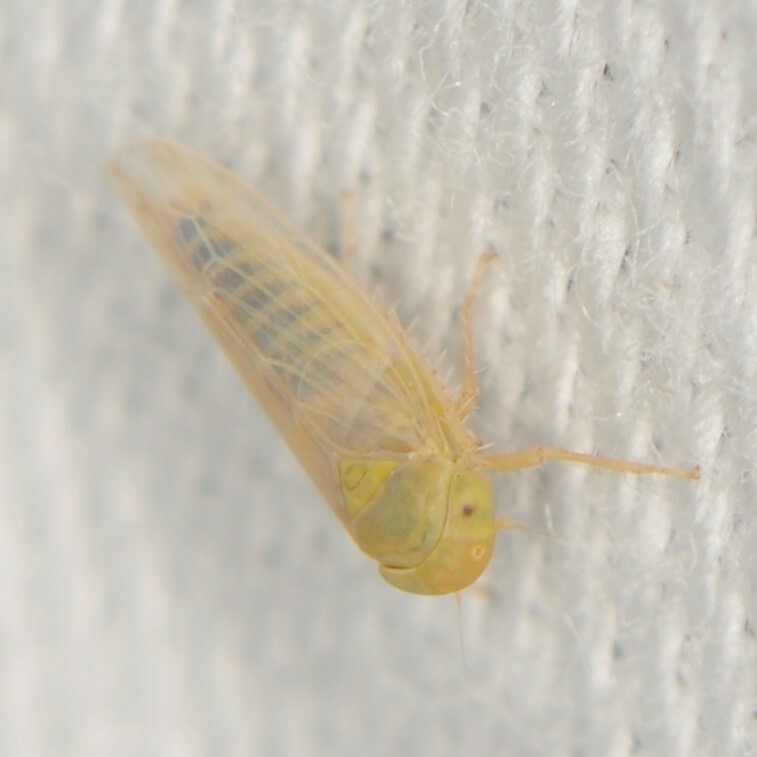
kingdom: Animalia
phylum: Arthropoda
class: Insecta
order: Hemiptera
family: Cicadellidae
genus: Neoaliturus
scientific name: Neoaliturus tenellus
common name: Leafhopper
